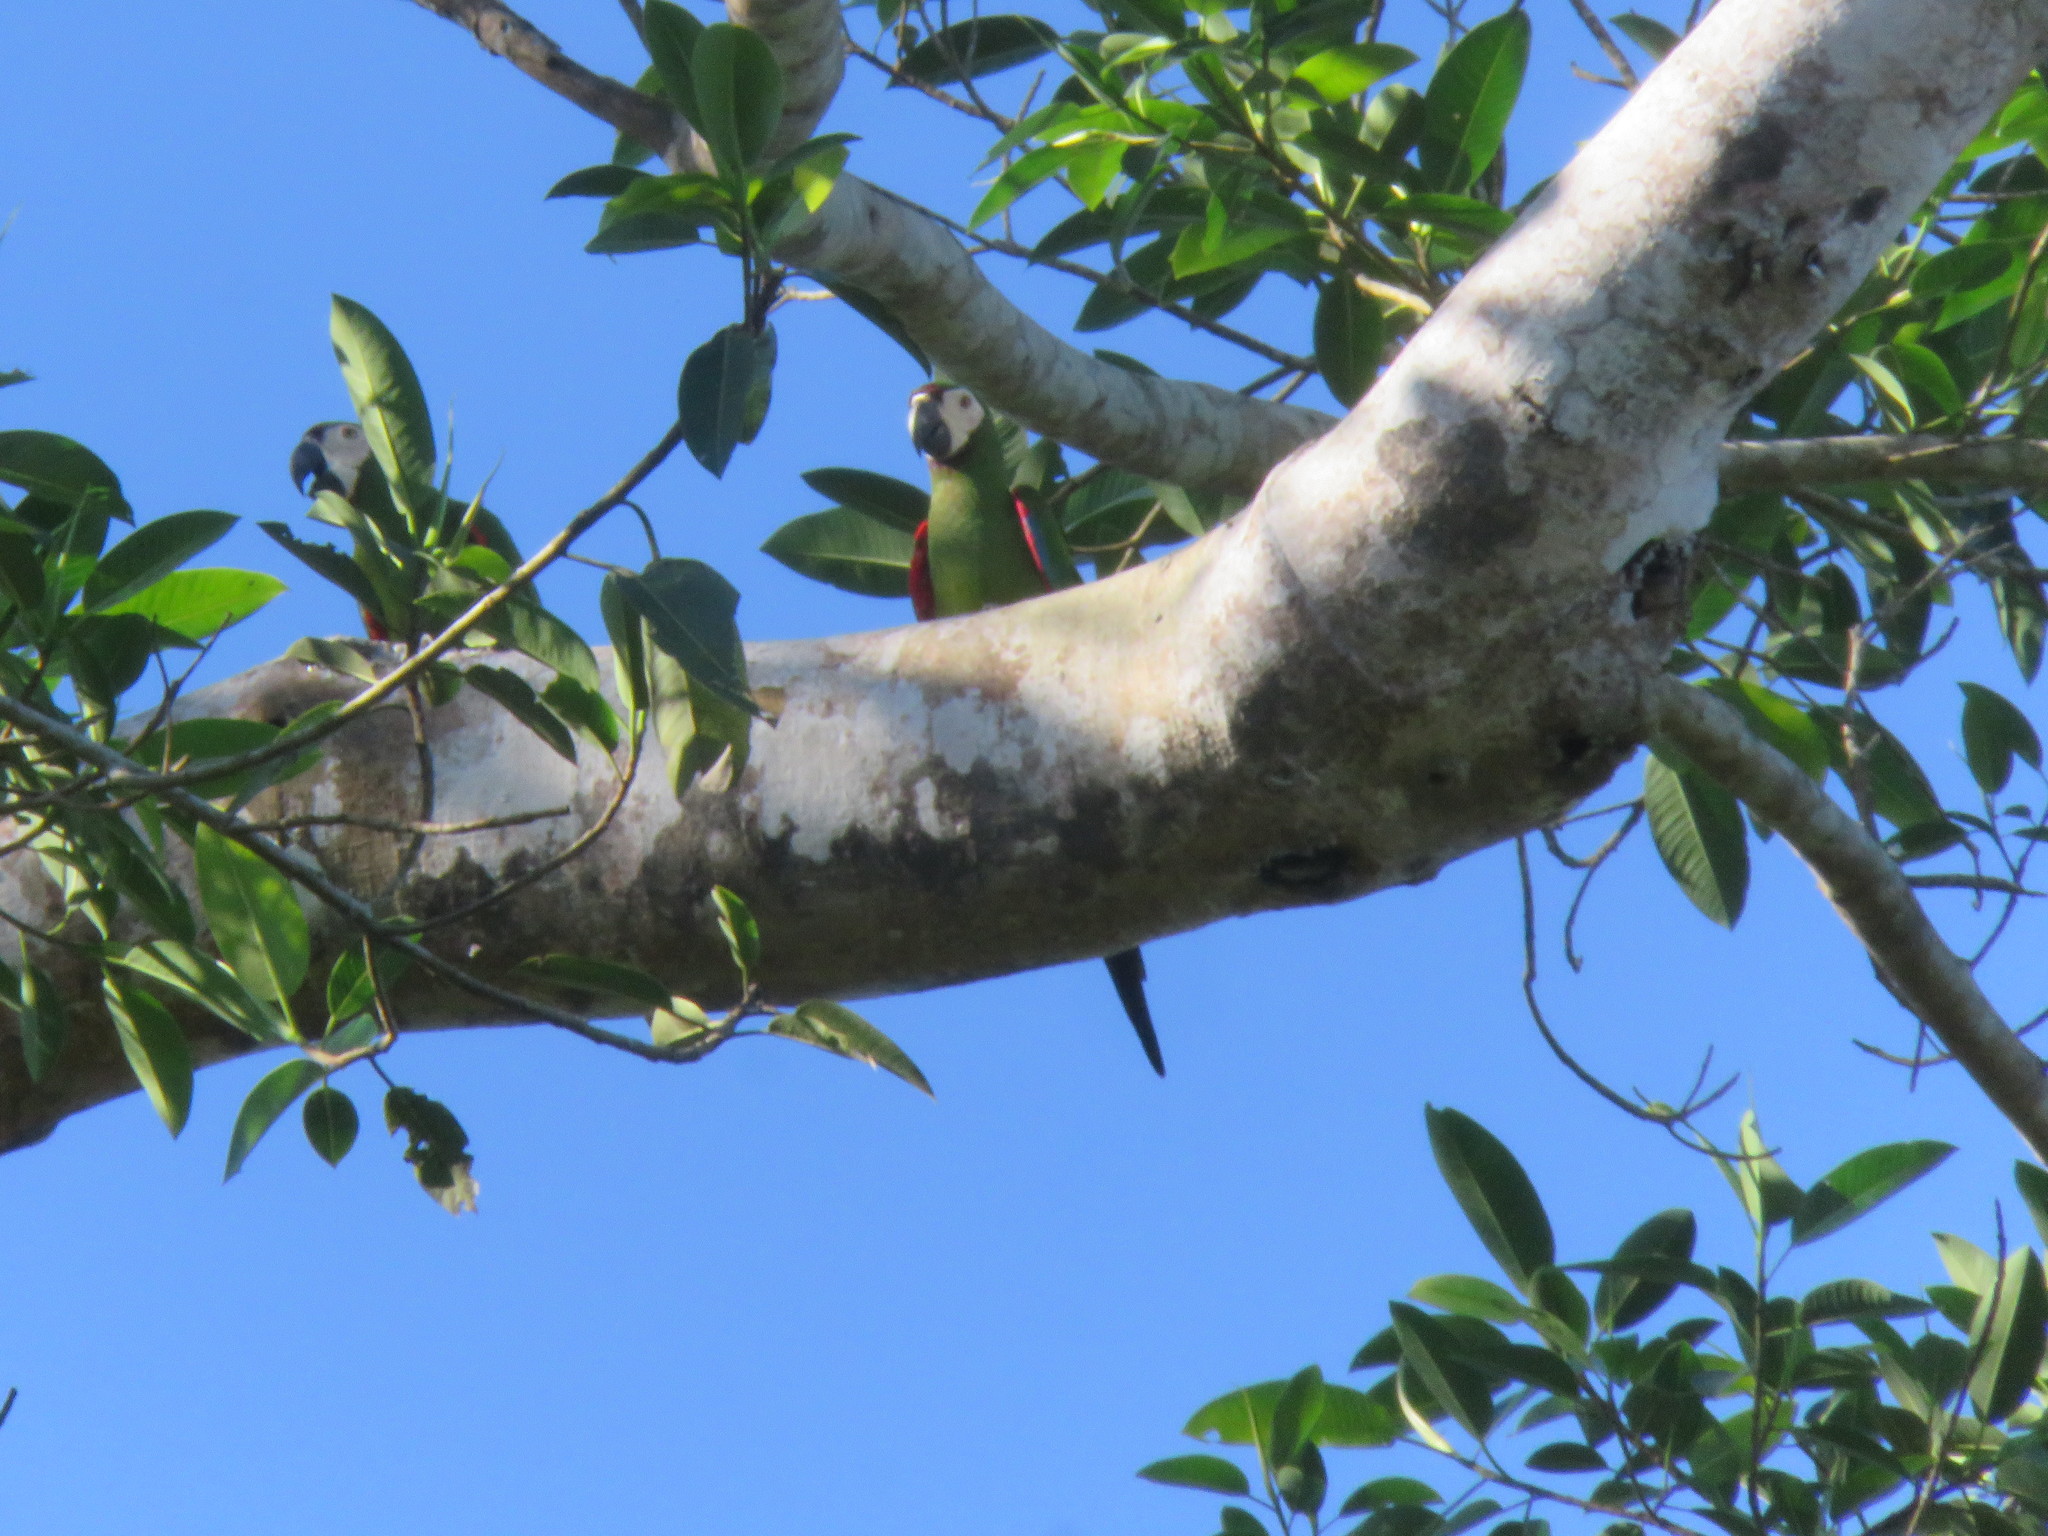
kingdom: Animalia
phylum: Chordata
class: Aves
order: Psittaciformes
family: Psittacidae
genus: Ara
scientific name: Ara severus
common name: Chestnut-fronted macaw
